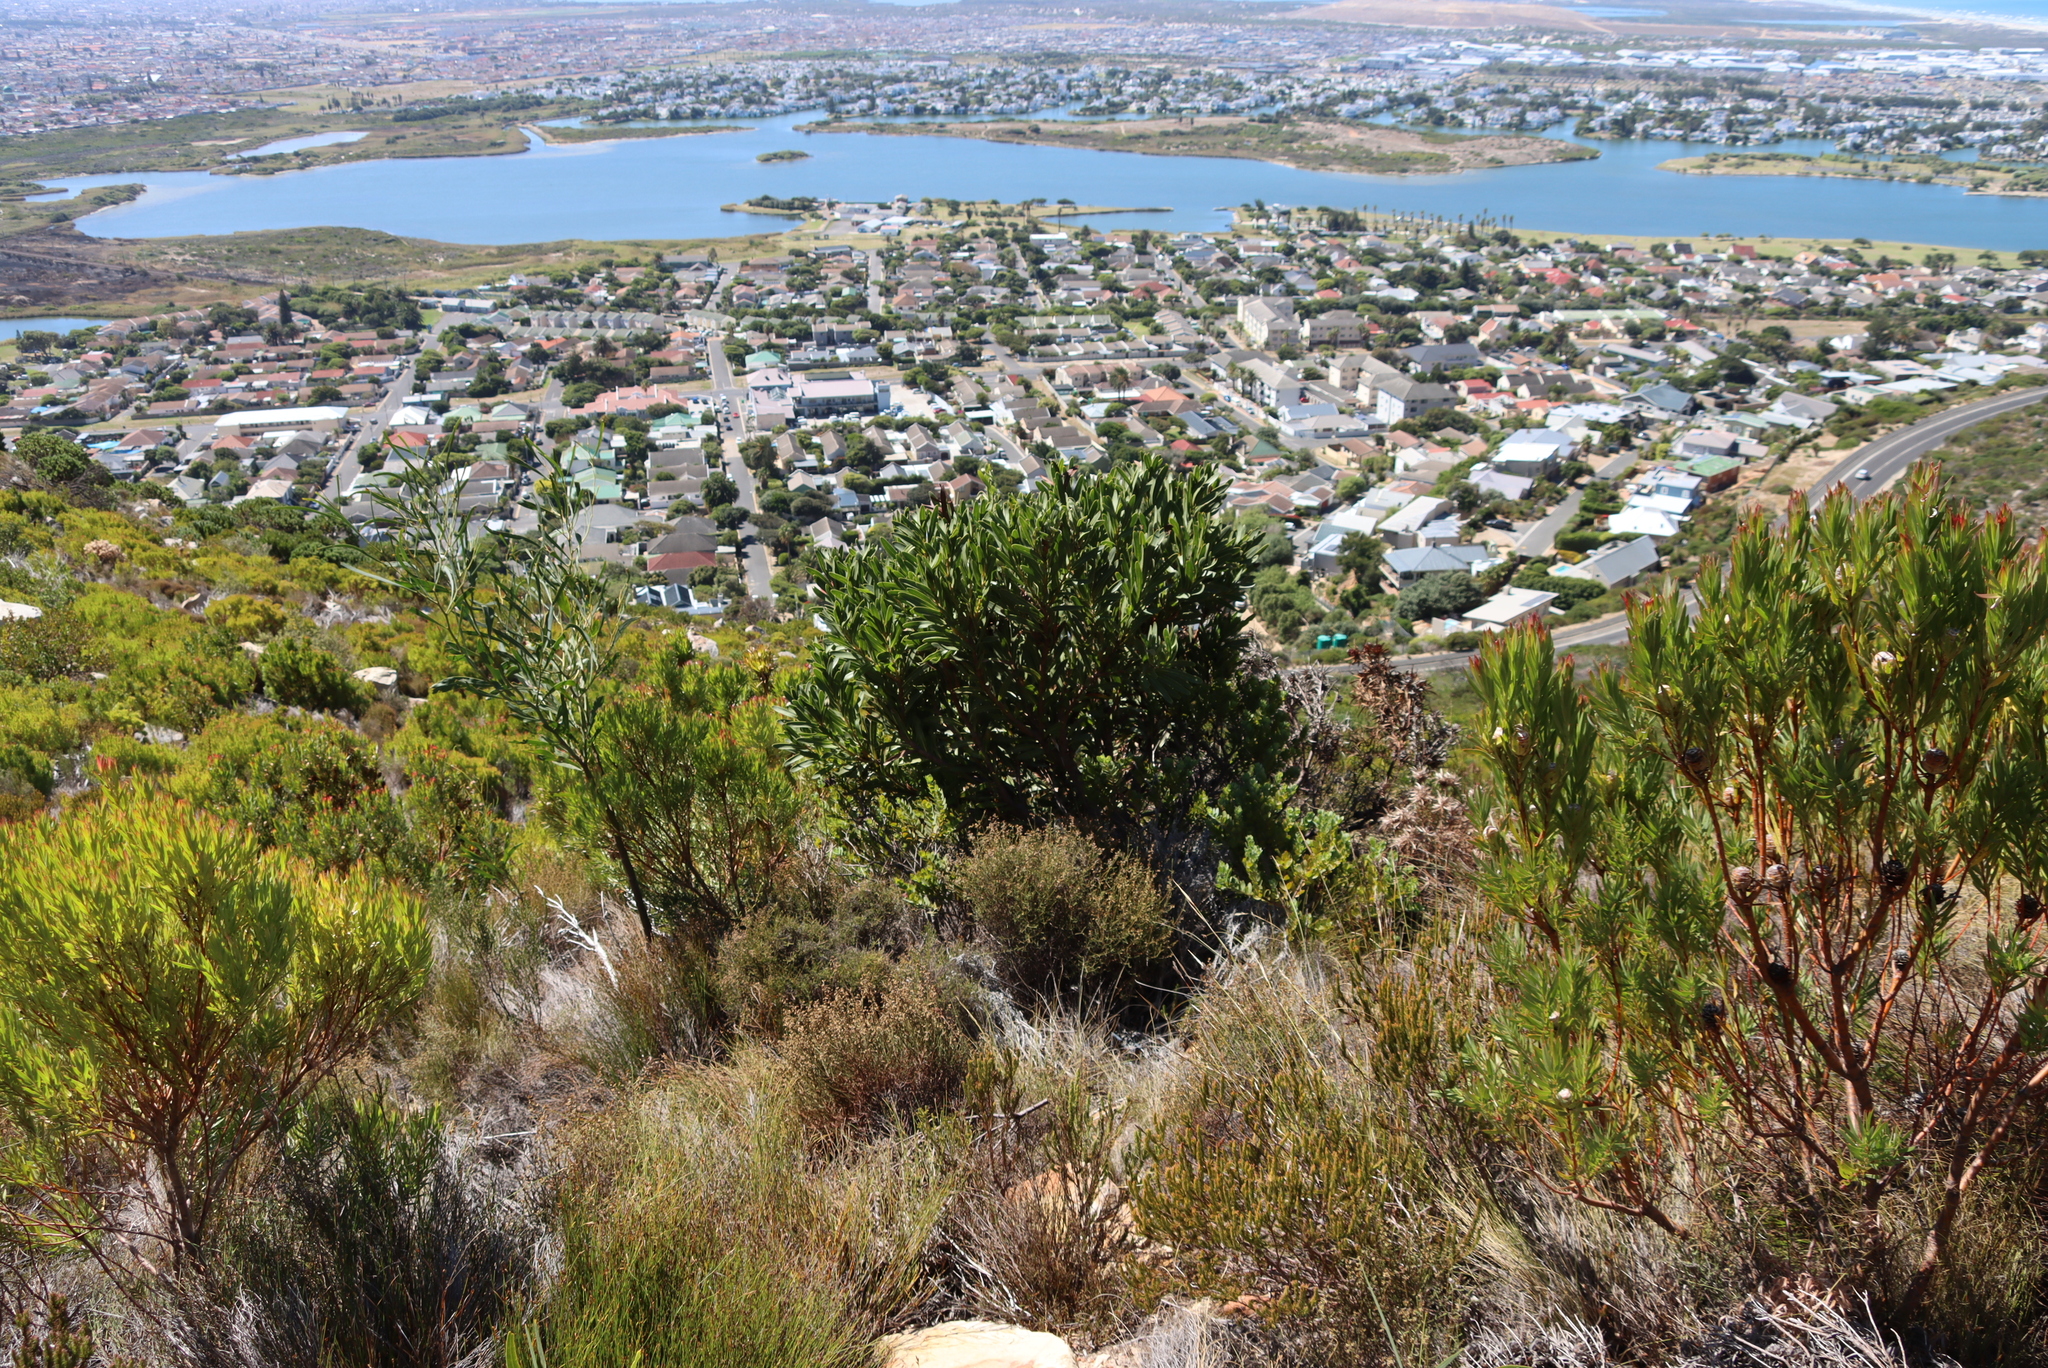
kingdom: Plantae
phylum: Tracheophyta
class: Magnoliopsida
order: Proteales
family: Proteaceae
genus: Protea
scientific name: Protea lepidocarpodendron
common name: Black-bearded protea
